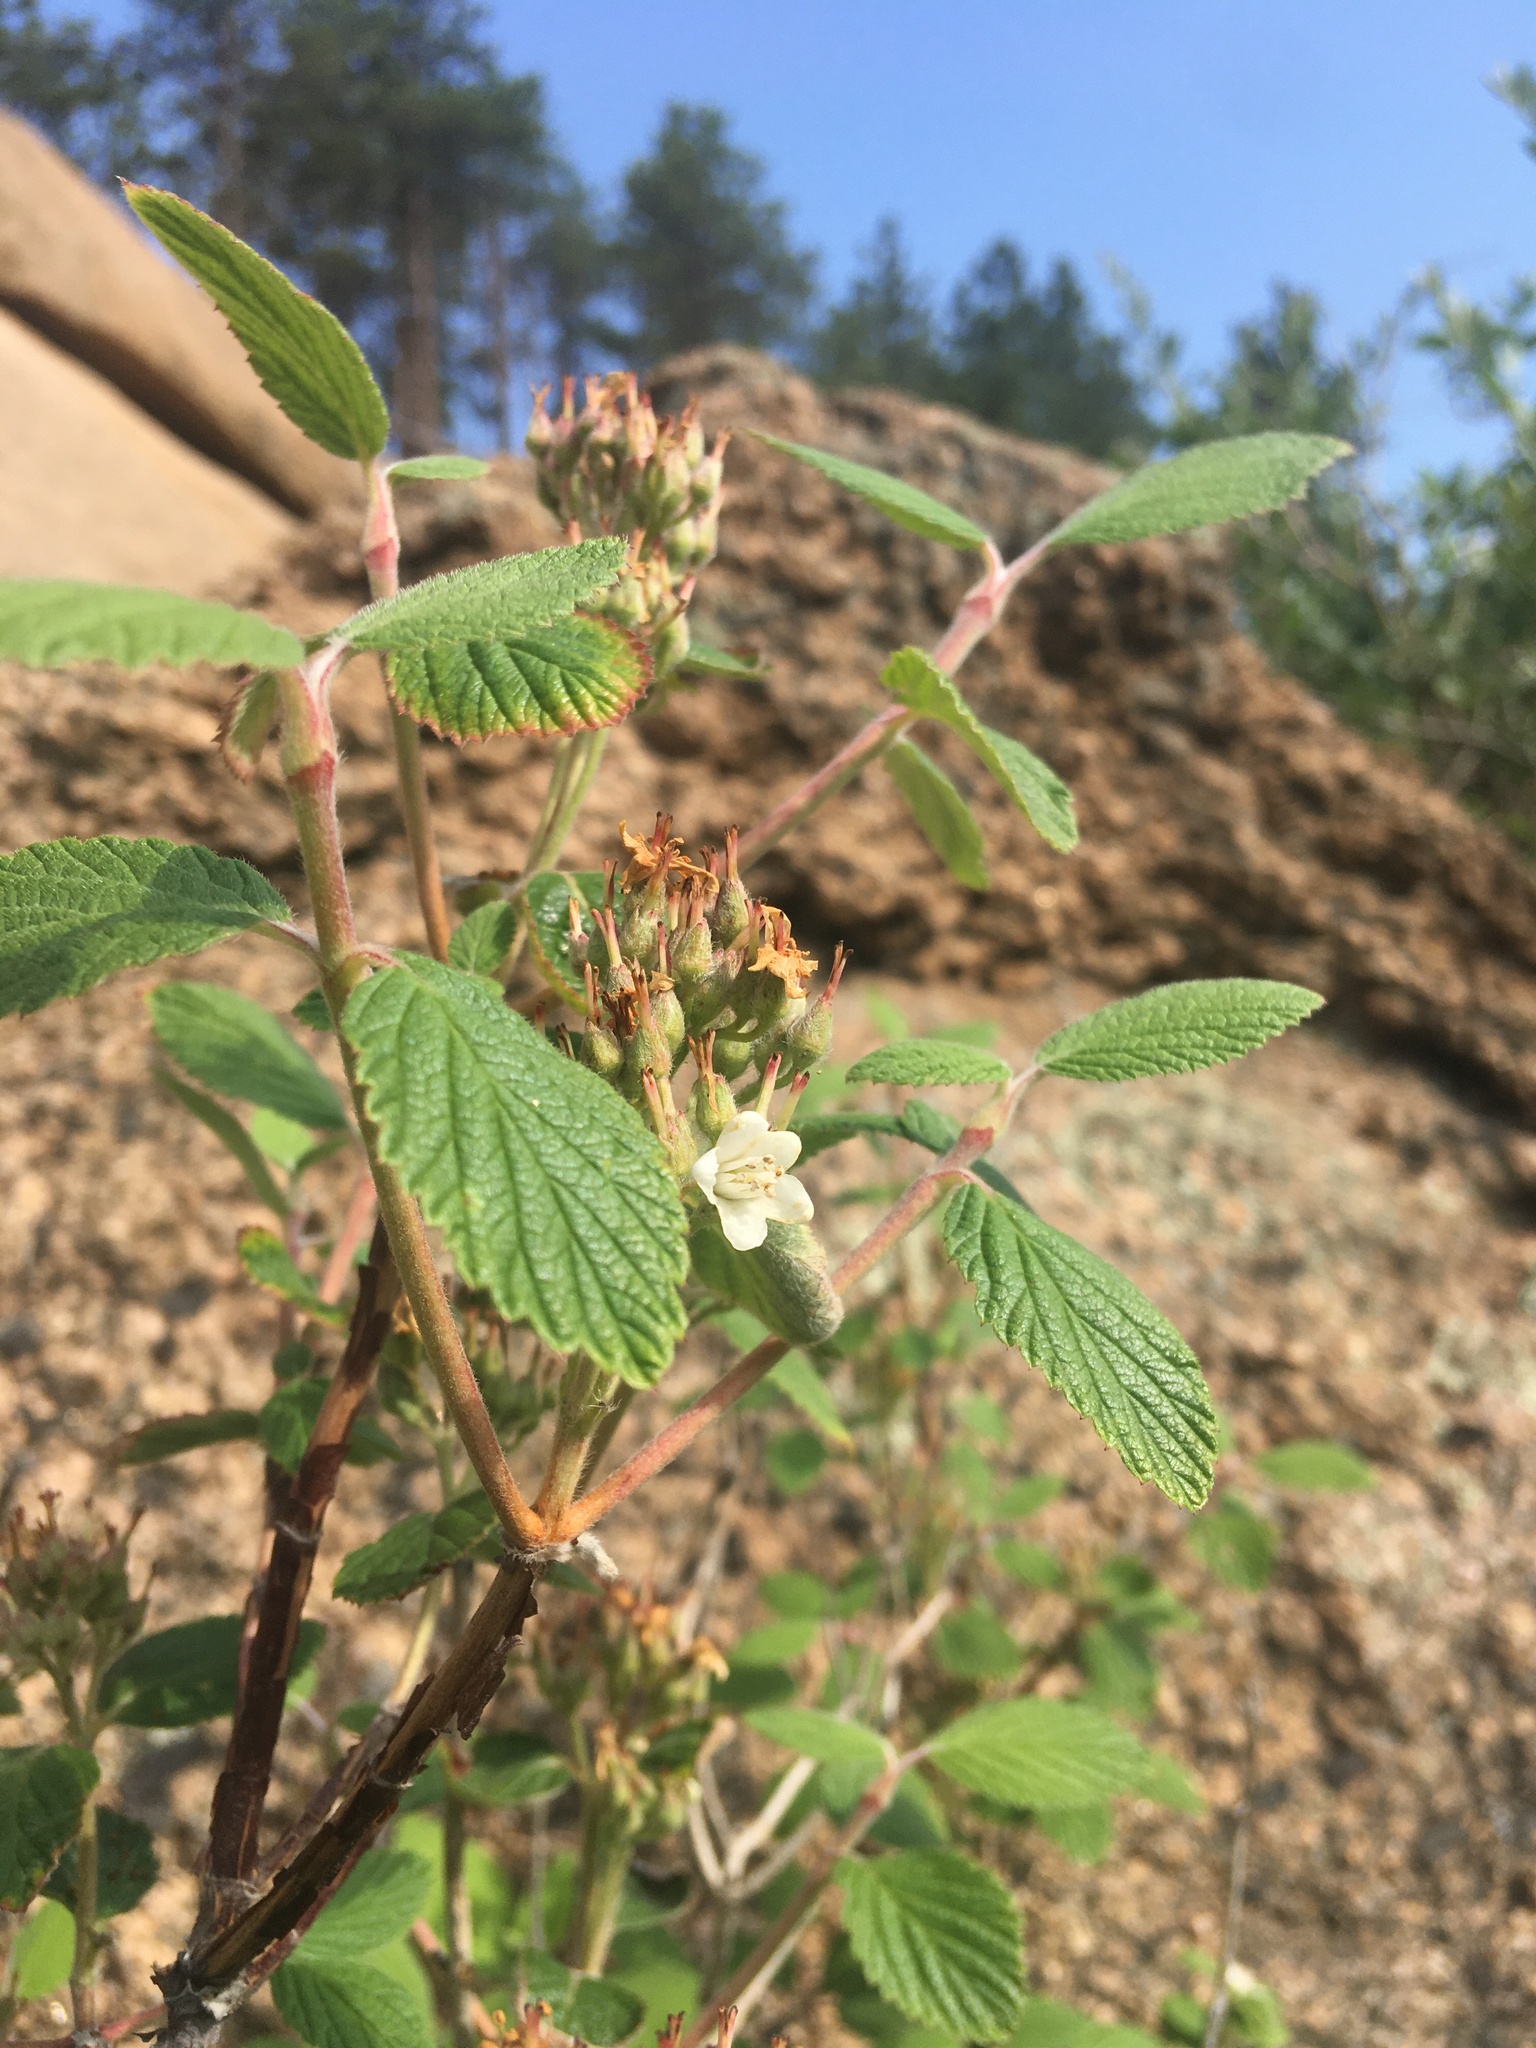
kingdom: Plantae
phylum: Tracheophyta
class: Magnoliopsida
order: Cornales
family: Hydrangeaceae
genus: Jamesia
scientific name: Jamesia americana
